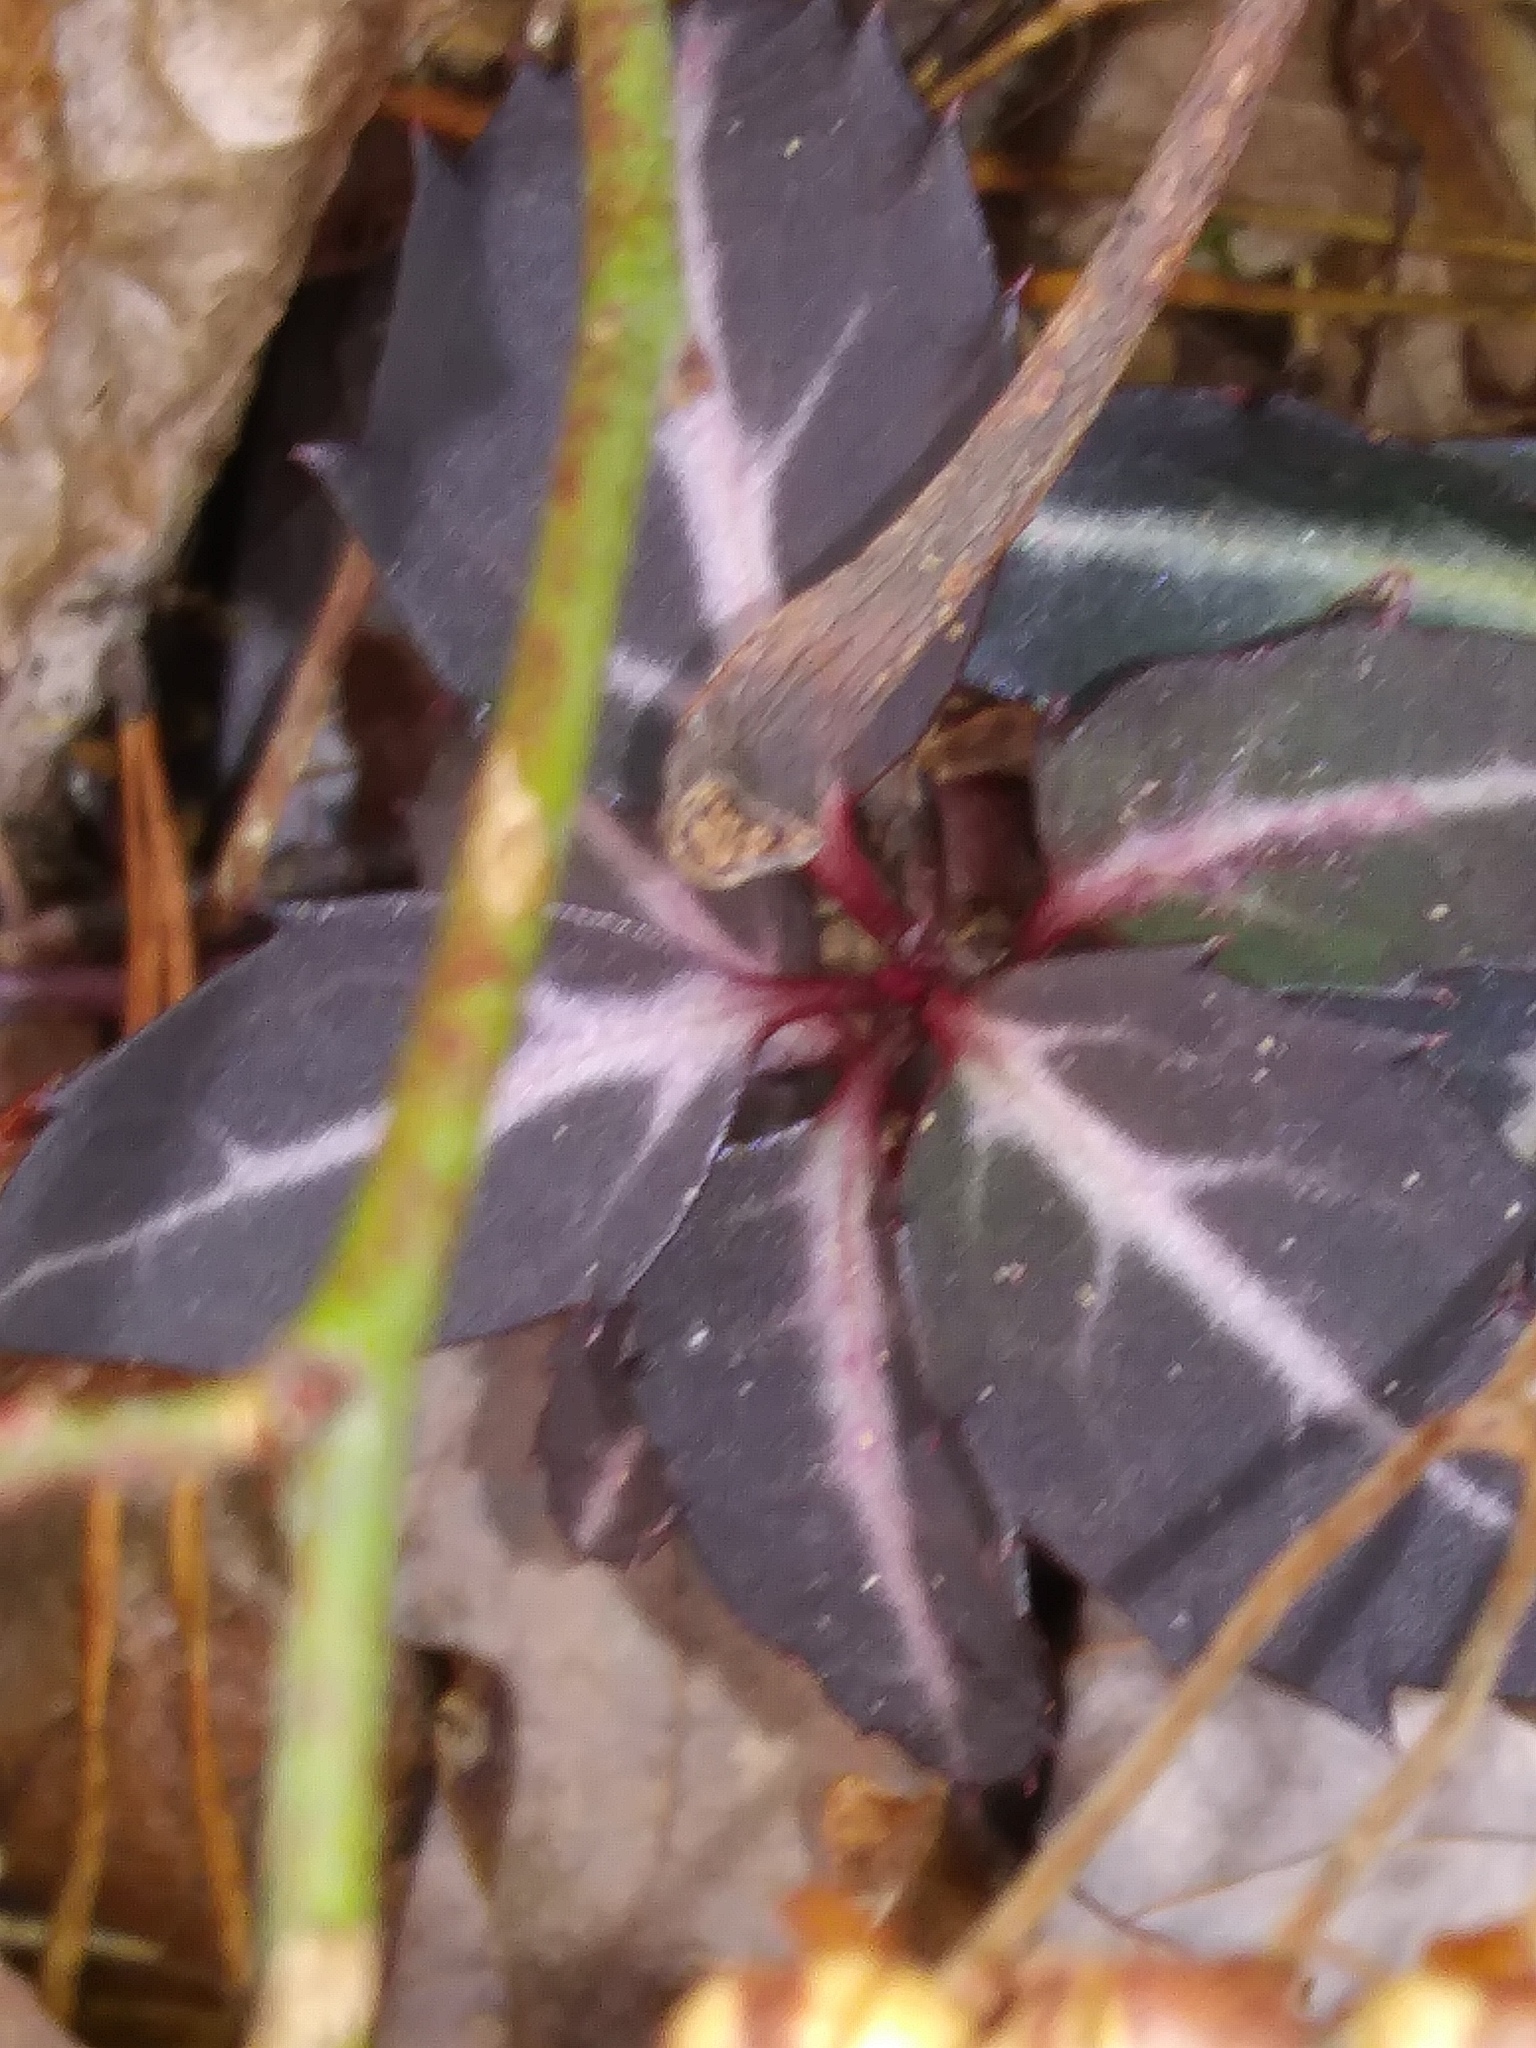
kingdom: Plantae
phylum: Tracheophyta
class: Magnoliopsida
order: Ericales
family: Ericaceae
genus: Chimaphila
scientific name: Chimaphila maculata
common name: Spotted pipsissewa
